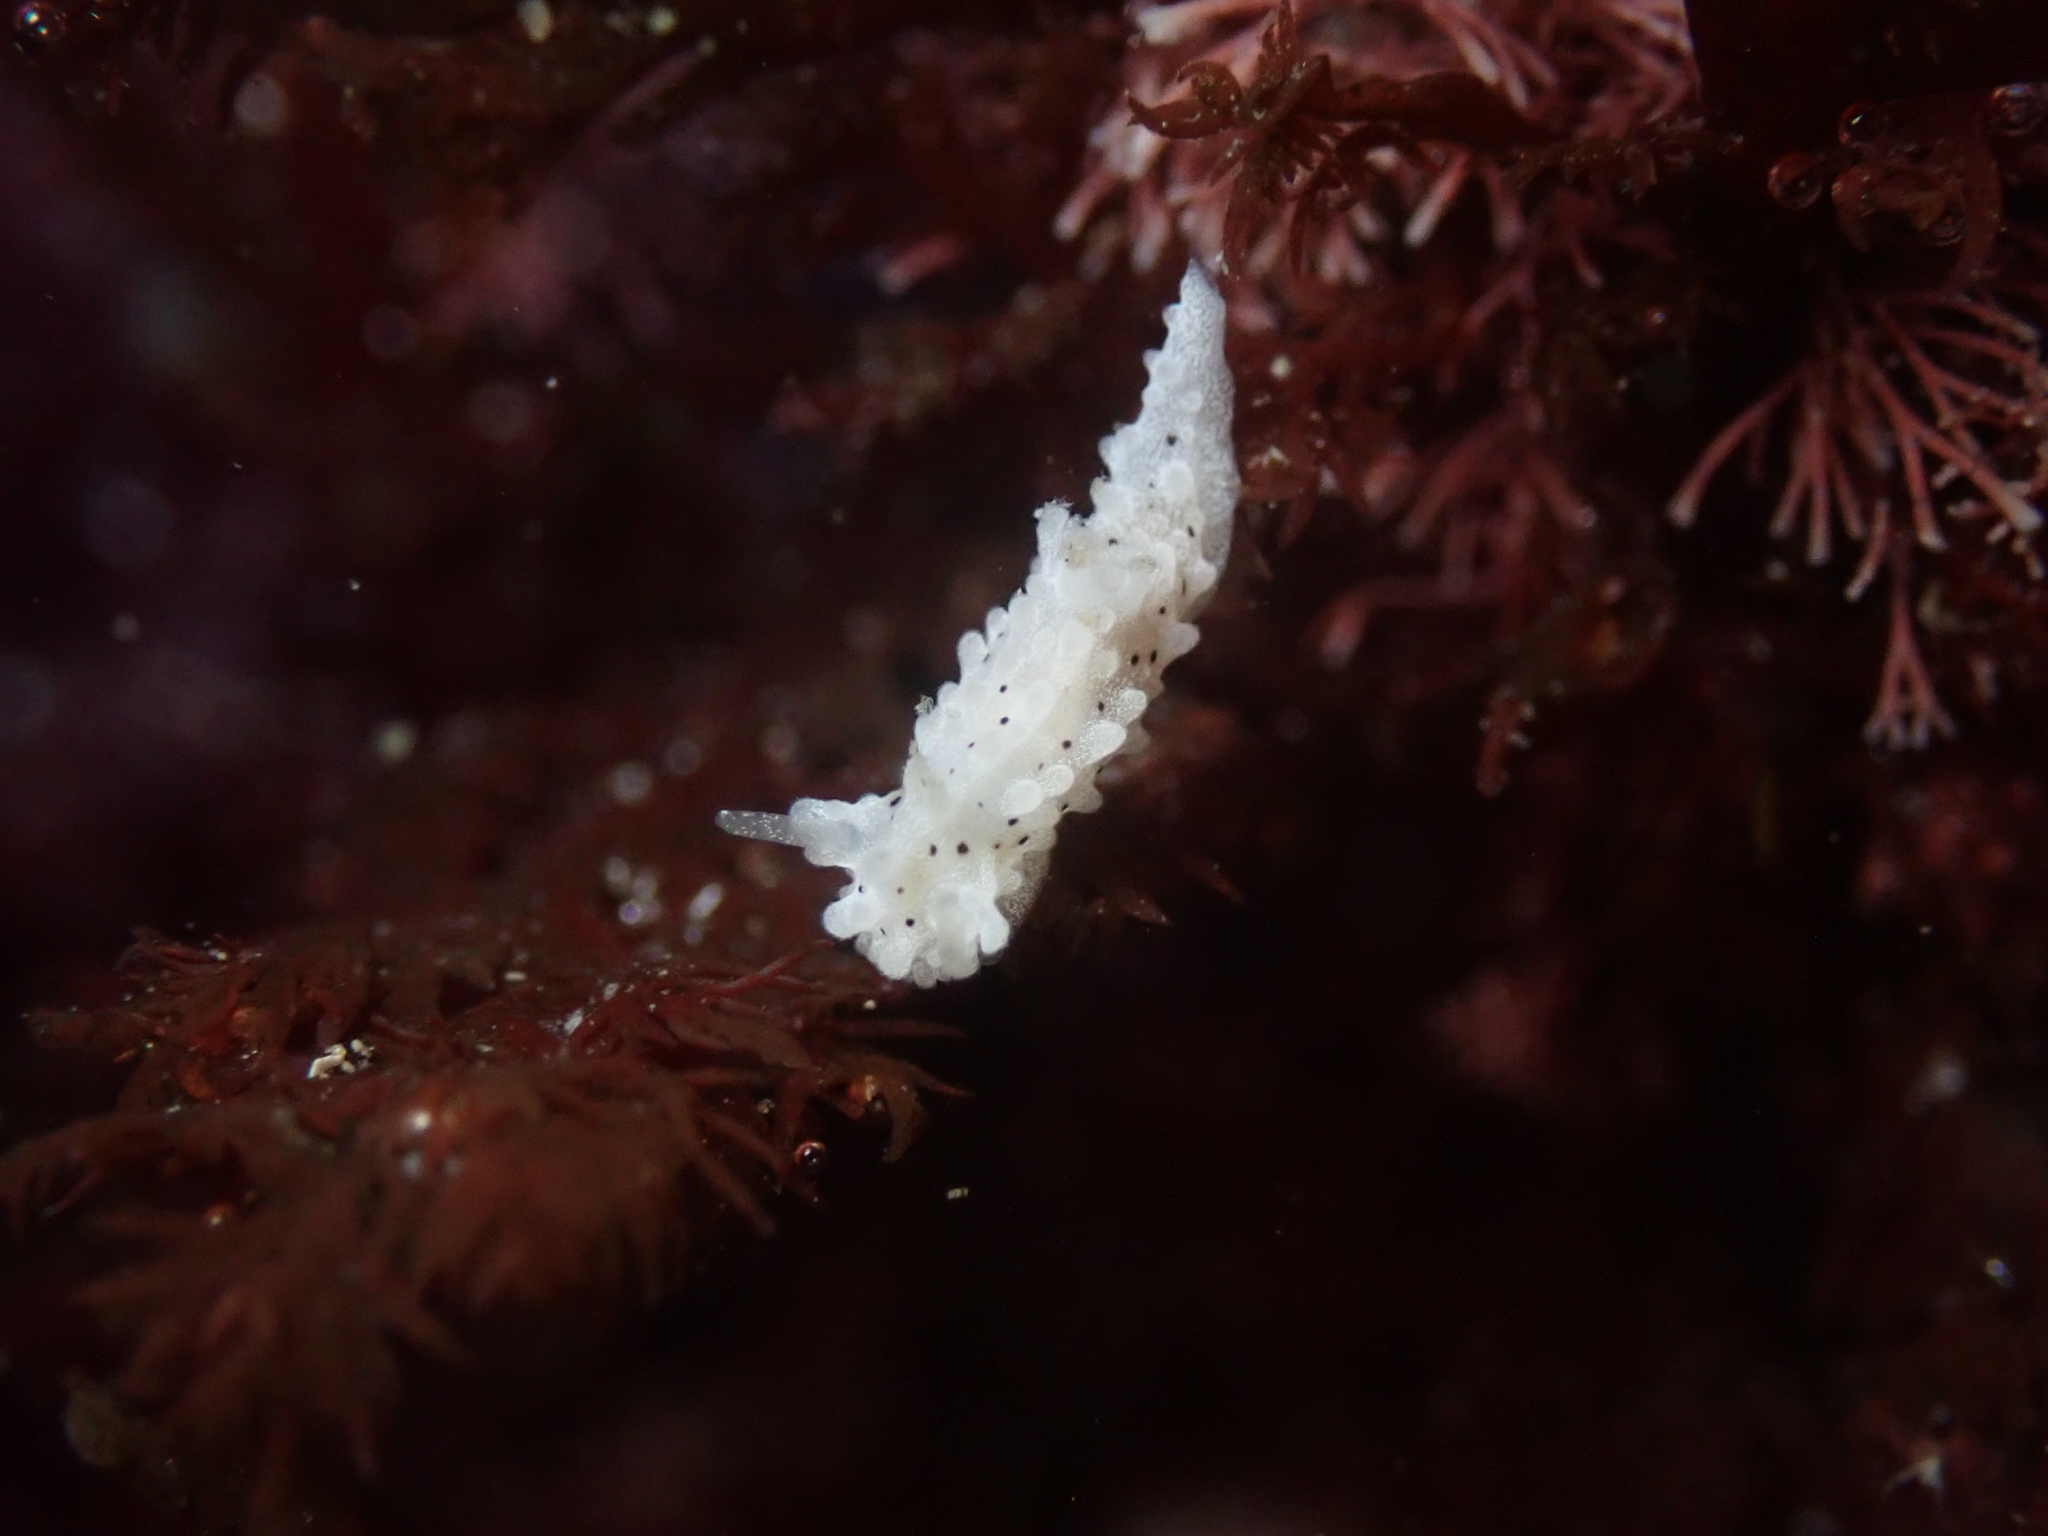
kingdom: Animalia
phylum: Mollusca
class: Gastropoda
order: Nudibranchia
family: Aegiridae
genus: Aegires
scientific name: Aegires albopunctatus
